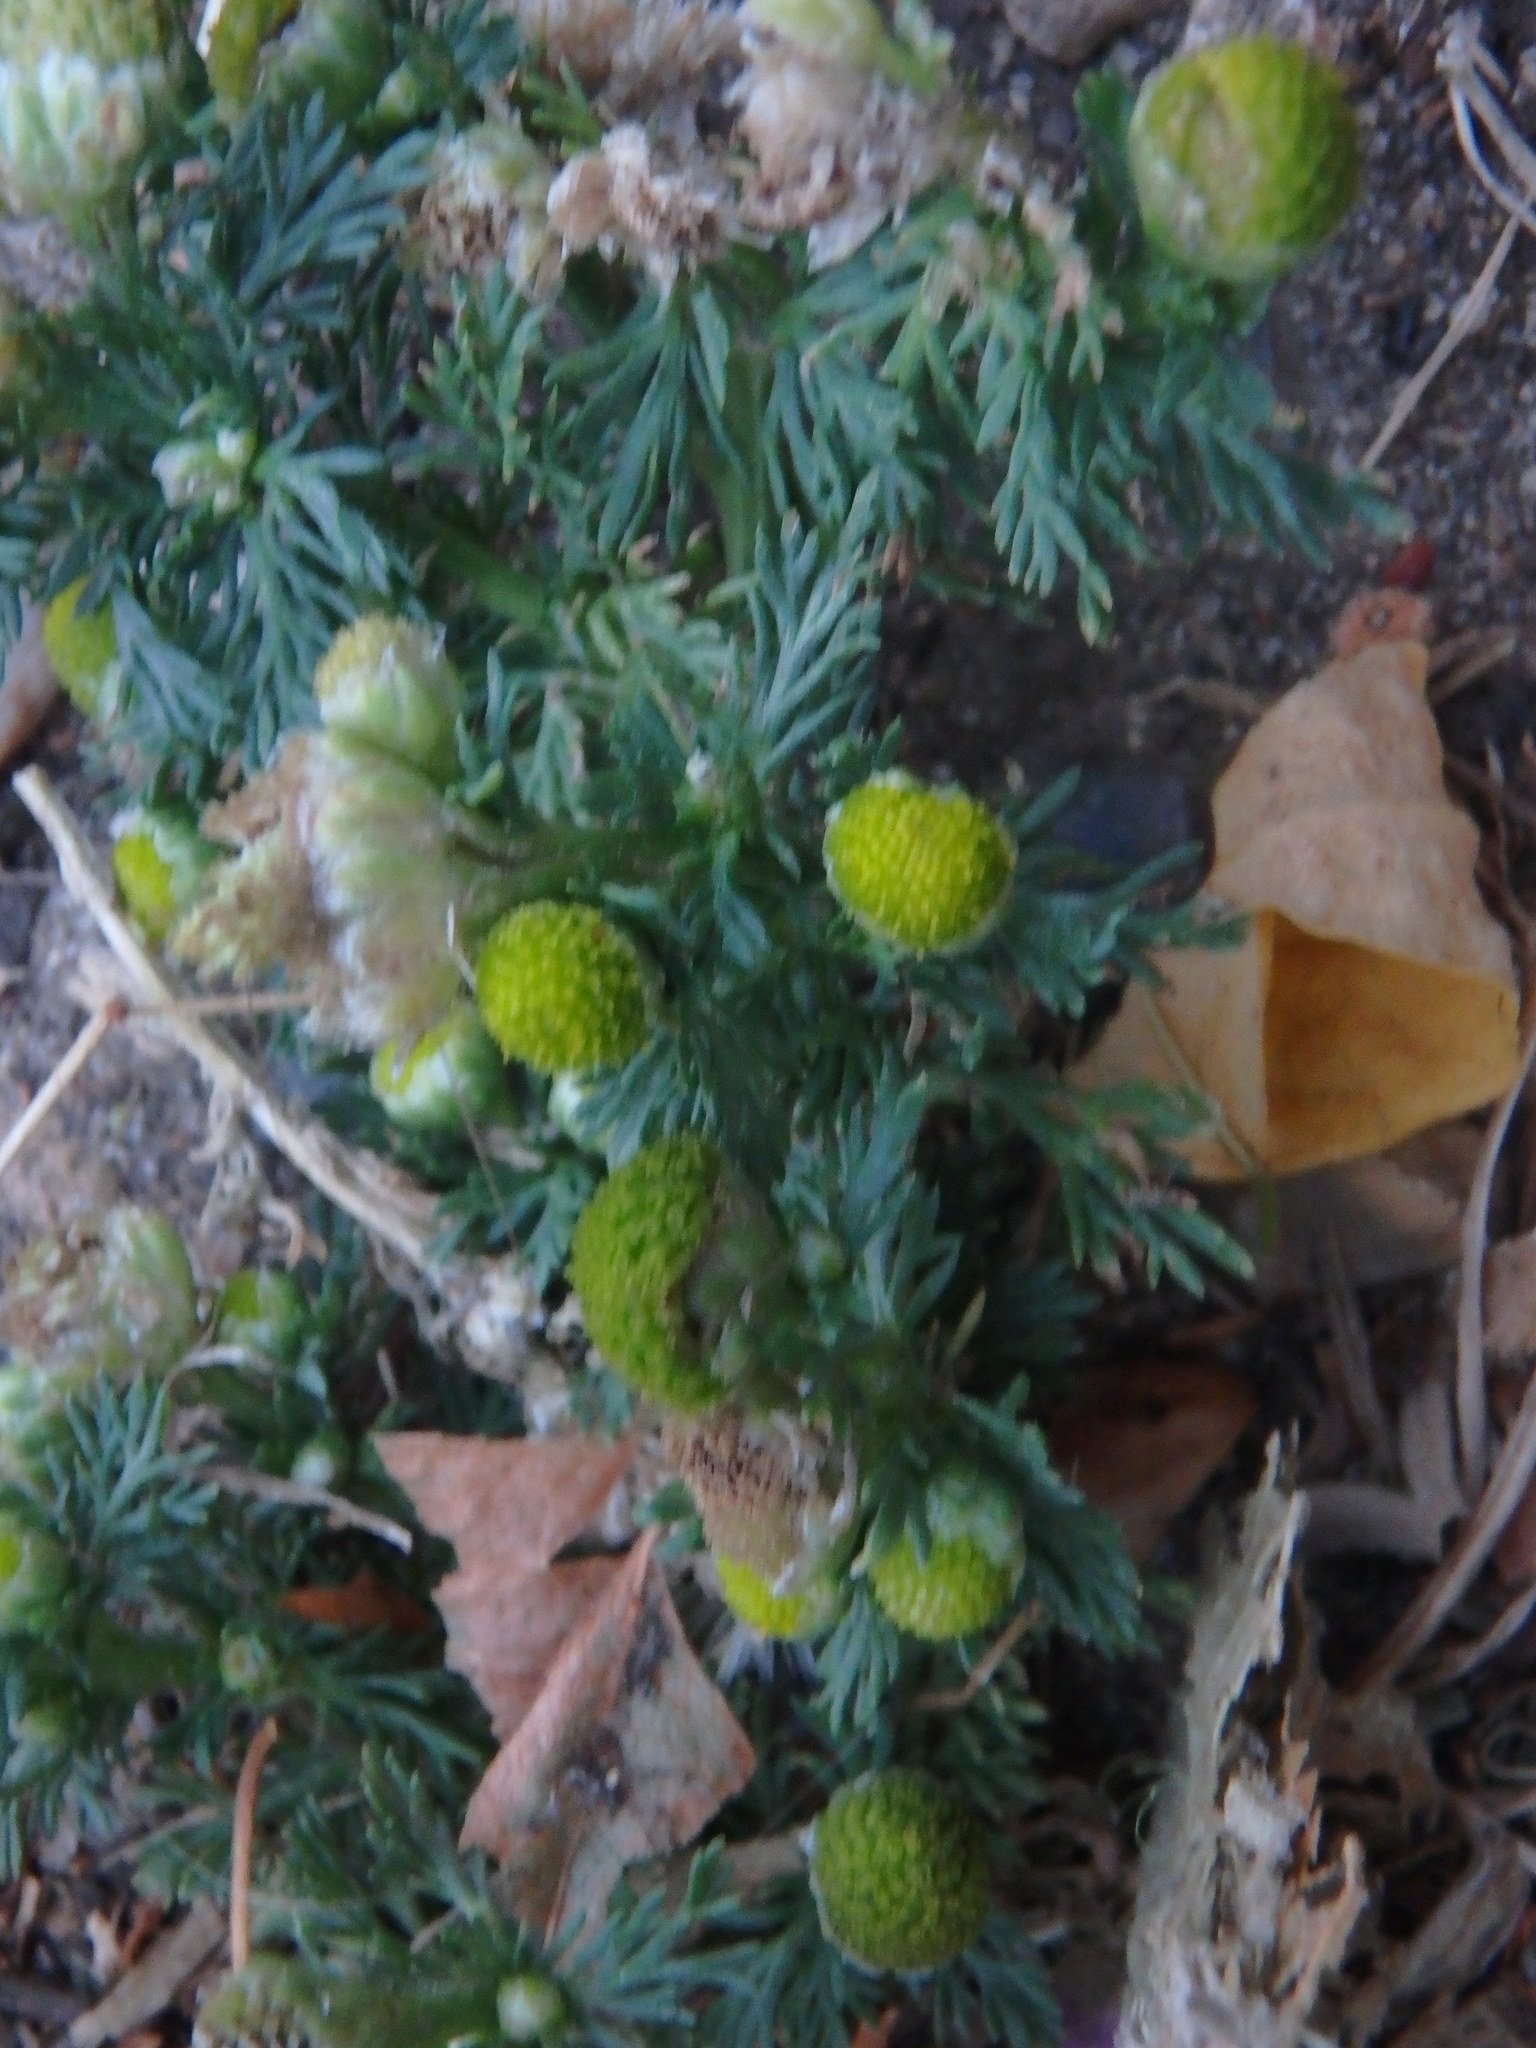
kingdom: Plantae
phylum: Tracheophyta
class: Magnoliopsida
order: Asterales
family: Asteraceae
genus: Matricaria
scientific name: Matricaria discoidea
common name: Disc mayweed
